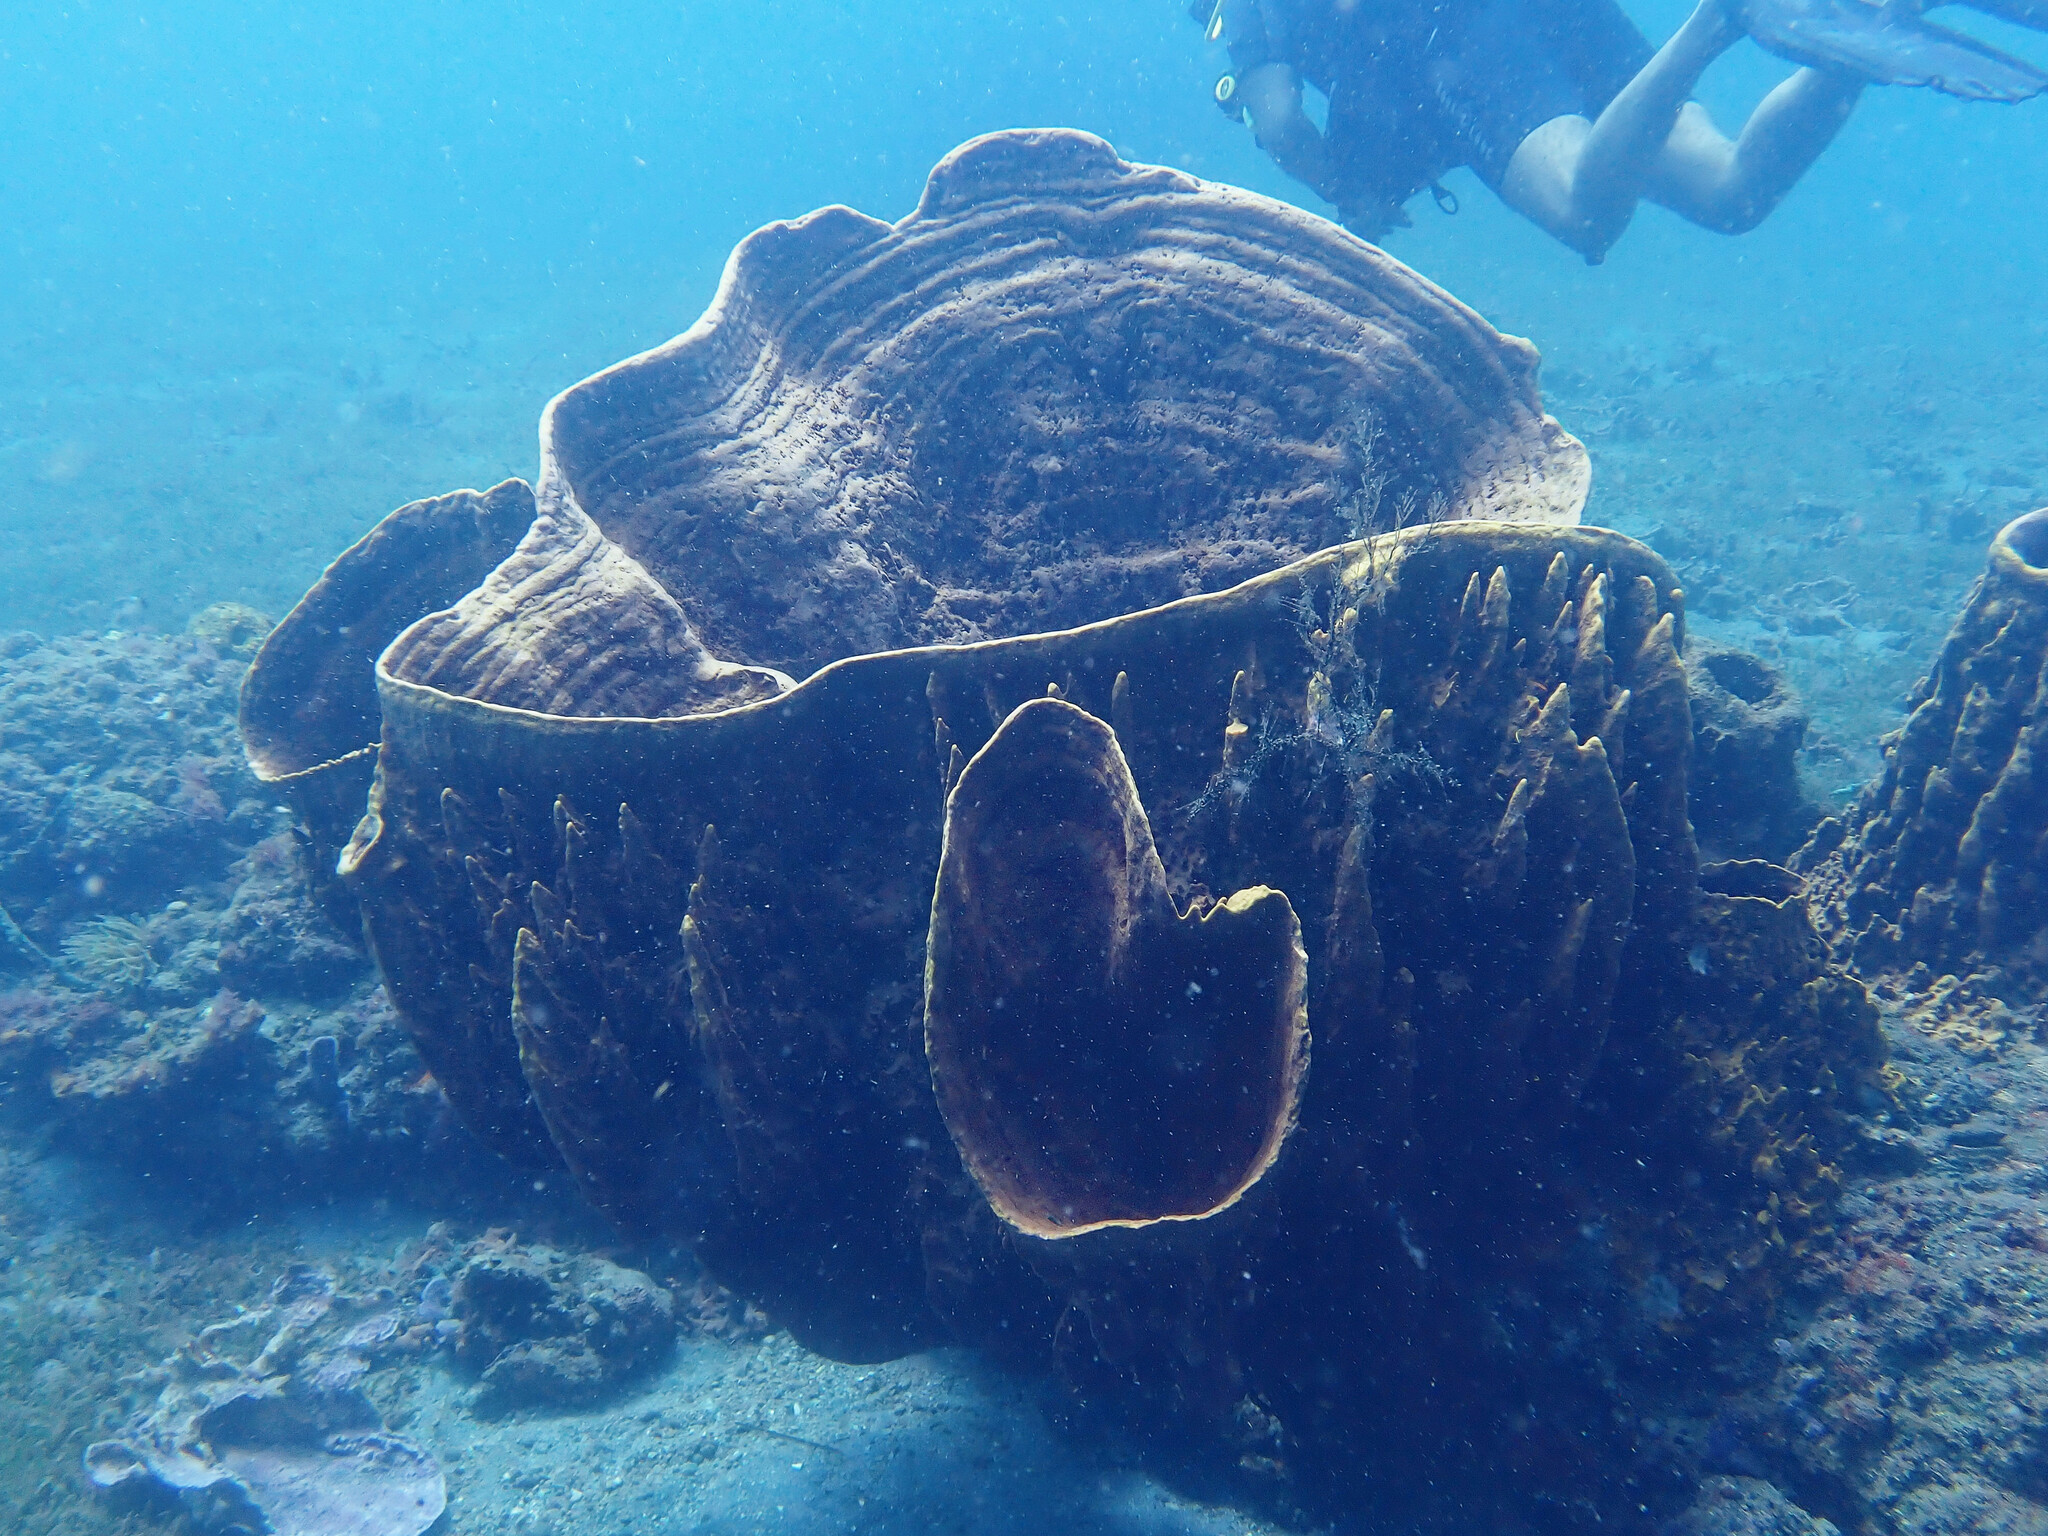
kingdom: Animalia
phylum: Porifera
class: Demospongiae
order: Haplosclerida
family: Petrosiidae
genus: Xestospongia
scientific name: Xestospongia muta
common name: Giant barrel sponge
